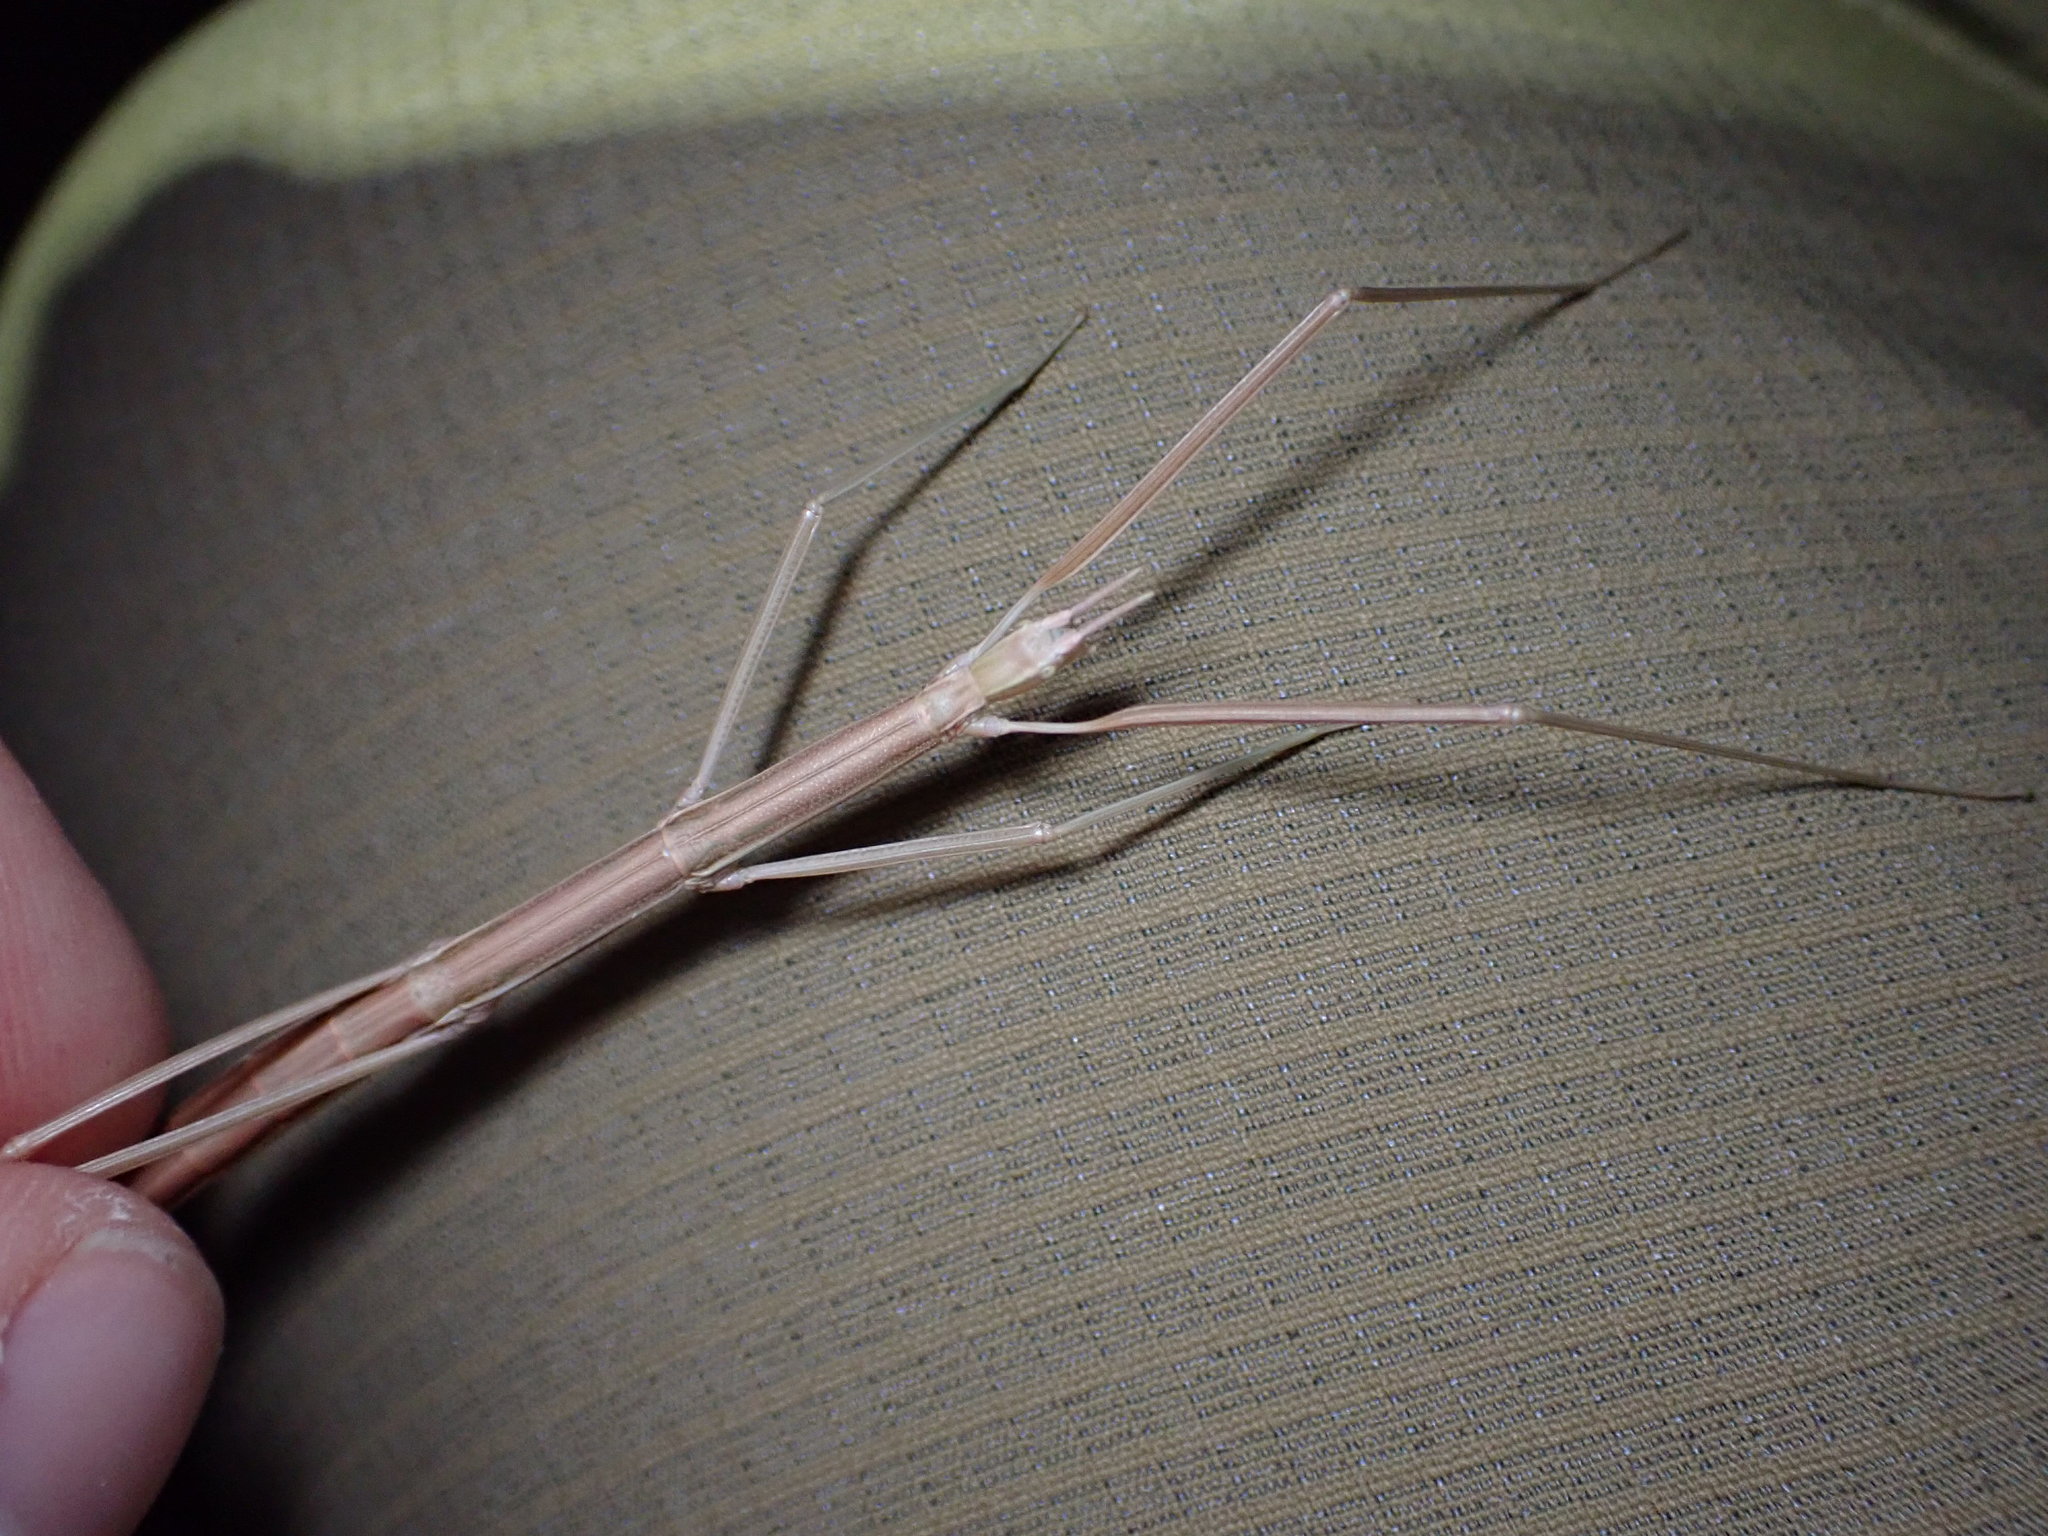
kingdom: Animalia
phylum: Arthropoda
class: Insecta
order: Phasmida
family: Bacillidae
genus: Pijnackeria
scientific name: Pijnackeria masettii
